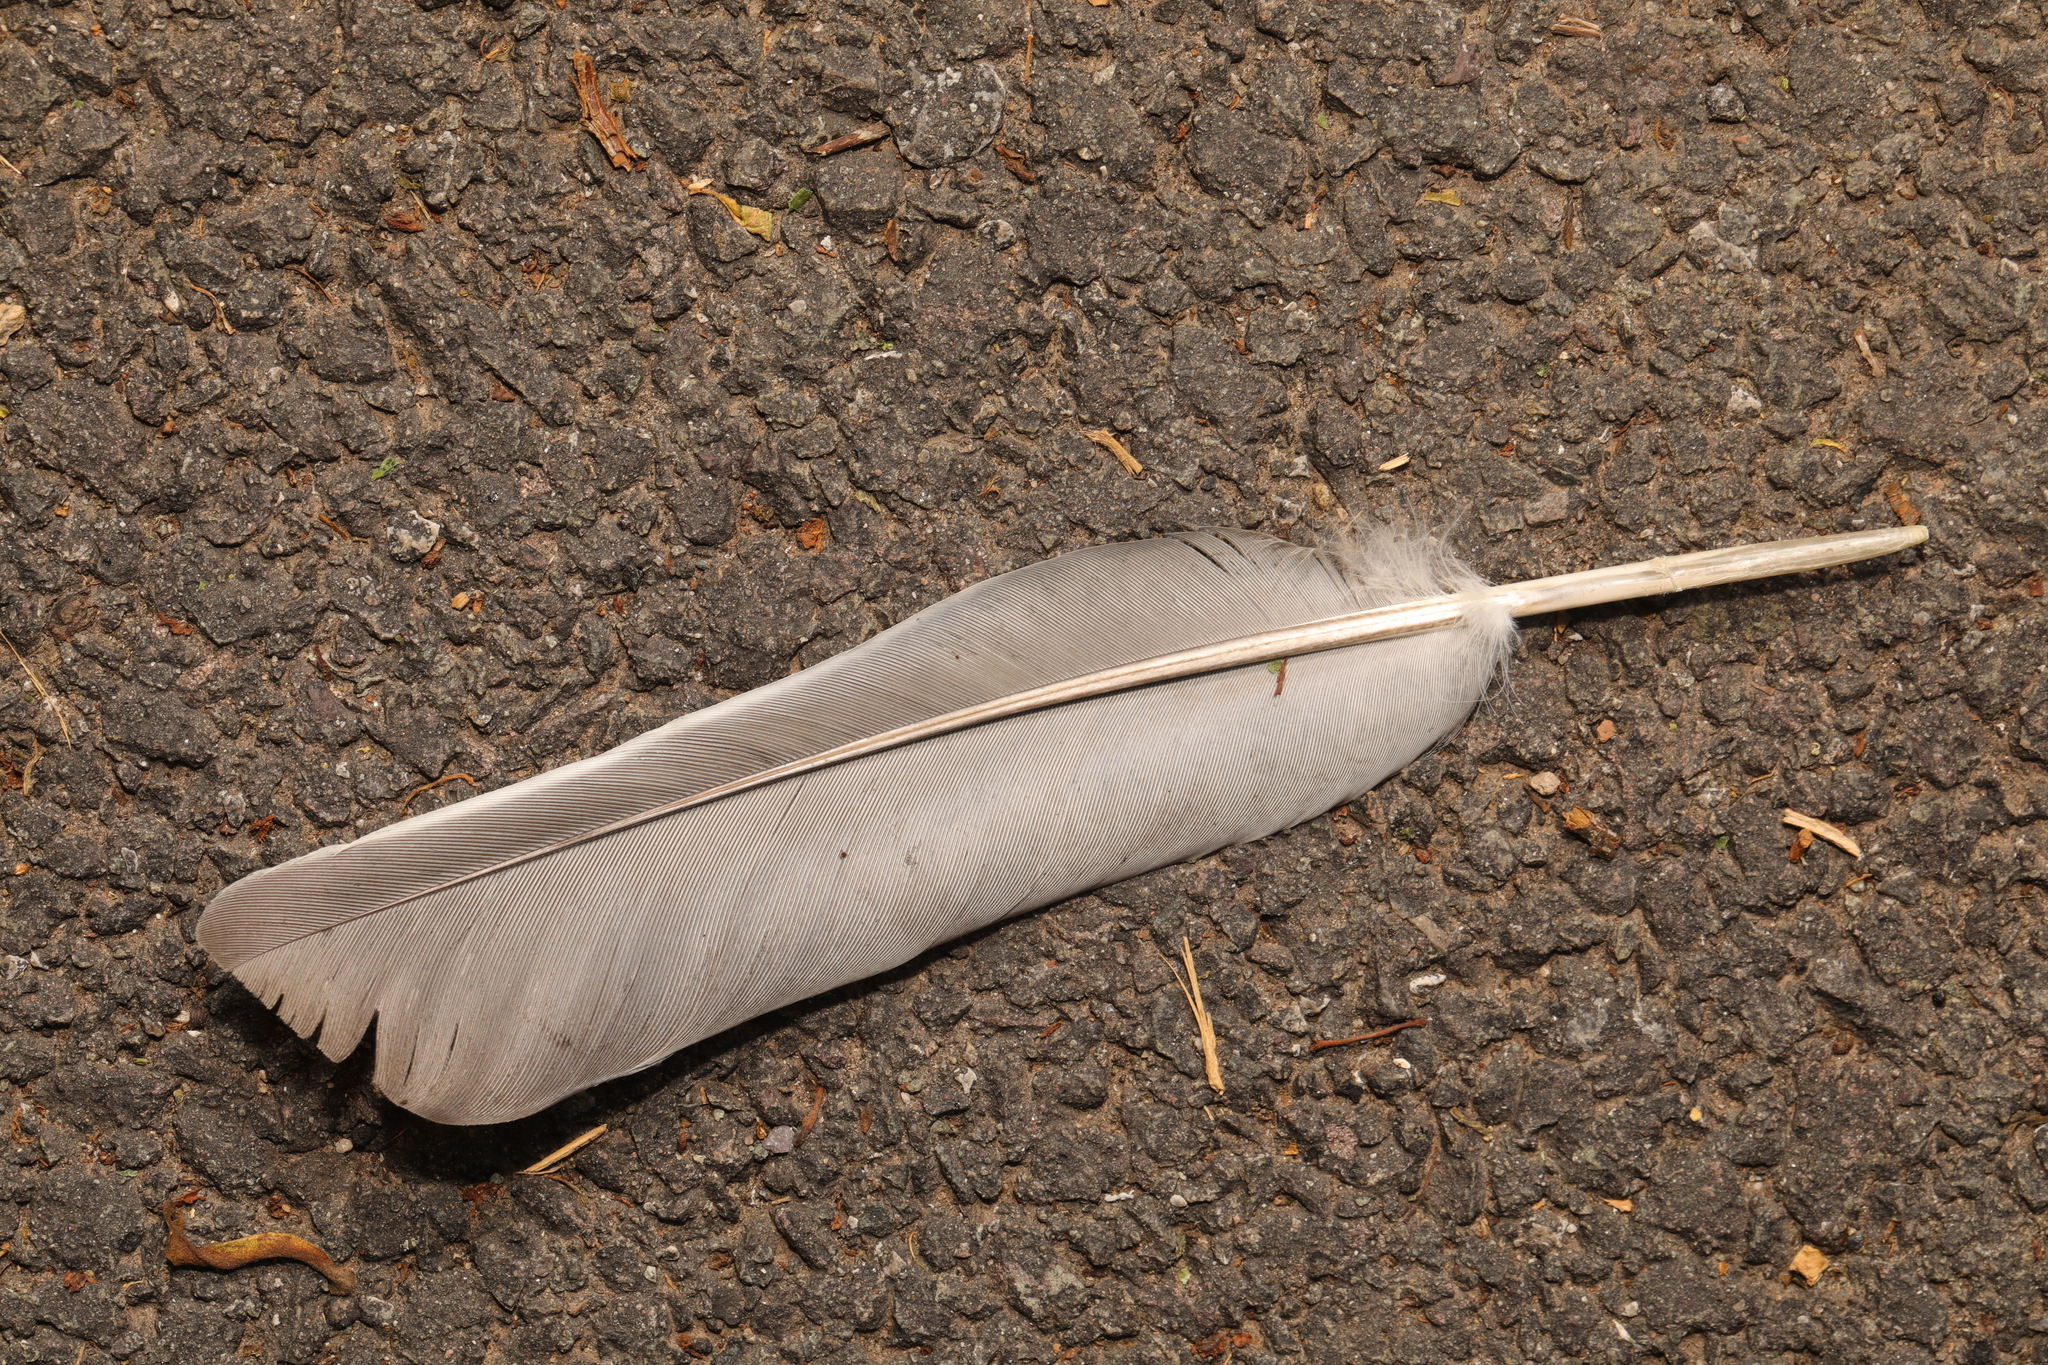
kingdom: Animalia
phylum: Chordata
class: Aves
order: Columbiformes
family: Columbidae
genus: Columba
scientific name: Columba palumbus
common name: Common wood pigeon
